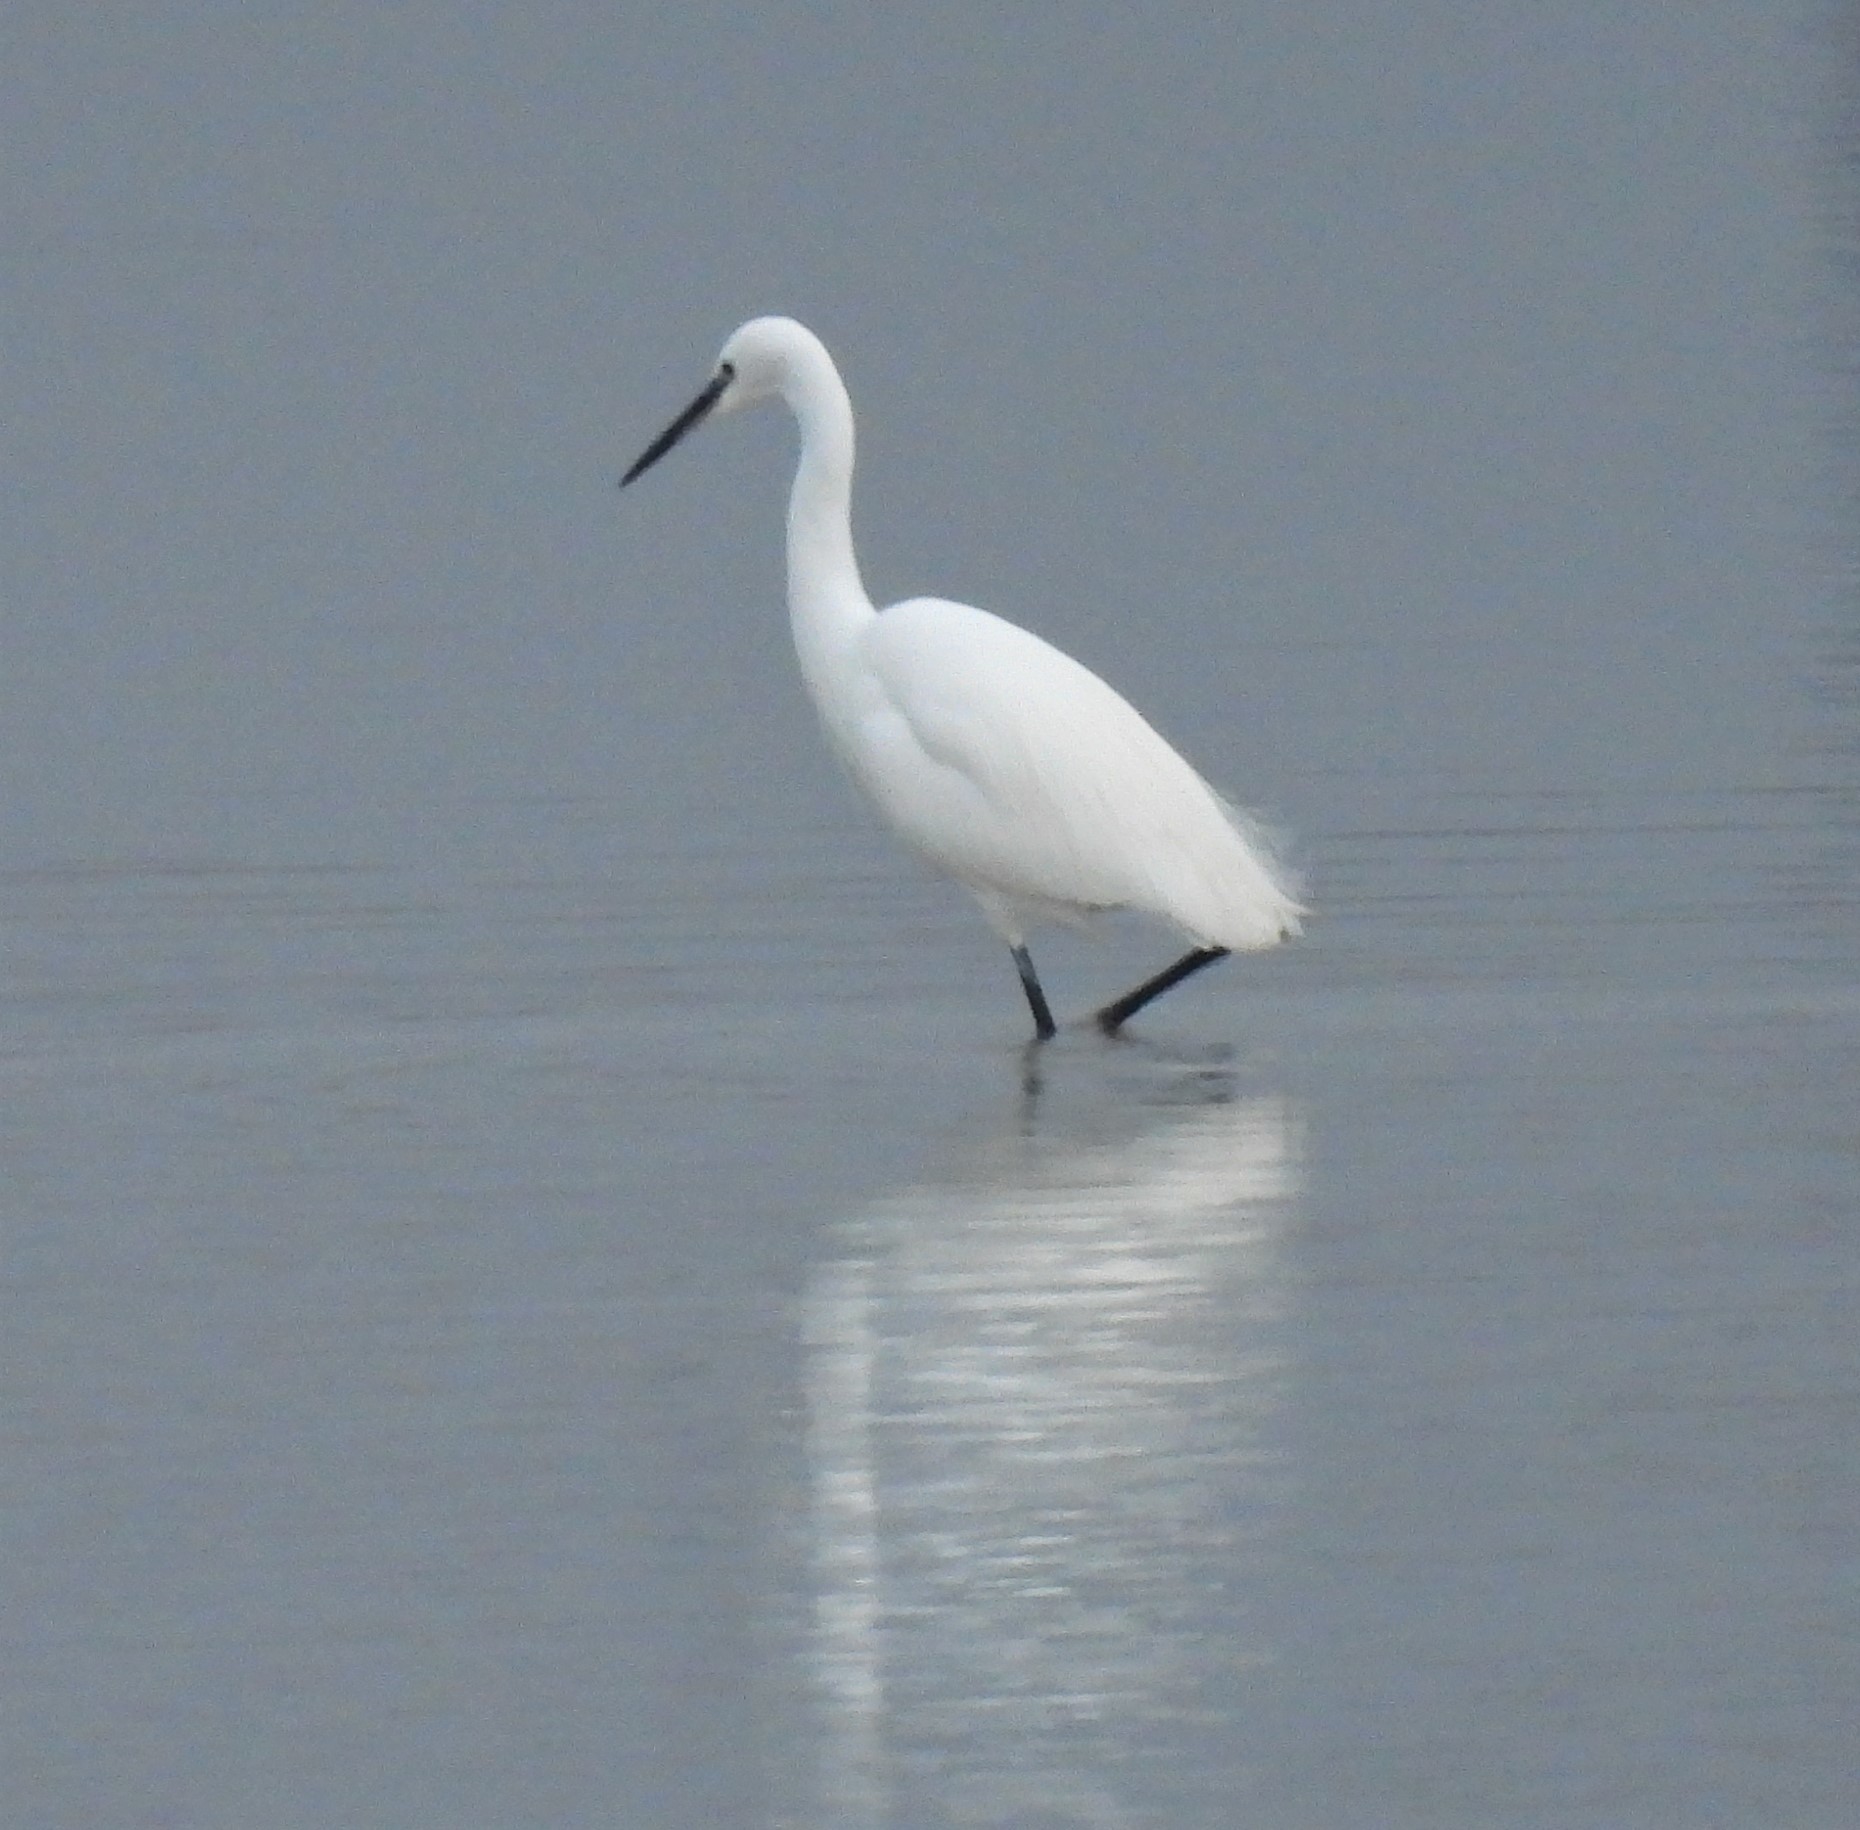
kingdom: Animalia
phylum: Chordata
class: Aves
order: Pelecaniformes
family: Ardeidae
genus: Egretta
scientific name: Egretta garzetta
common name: Little egret
